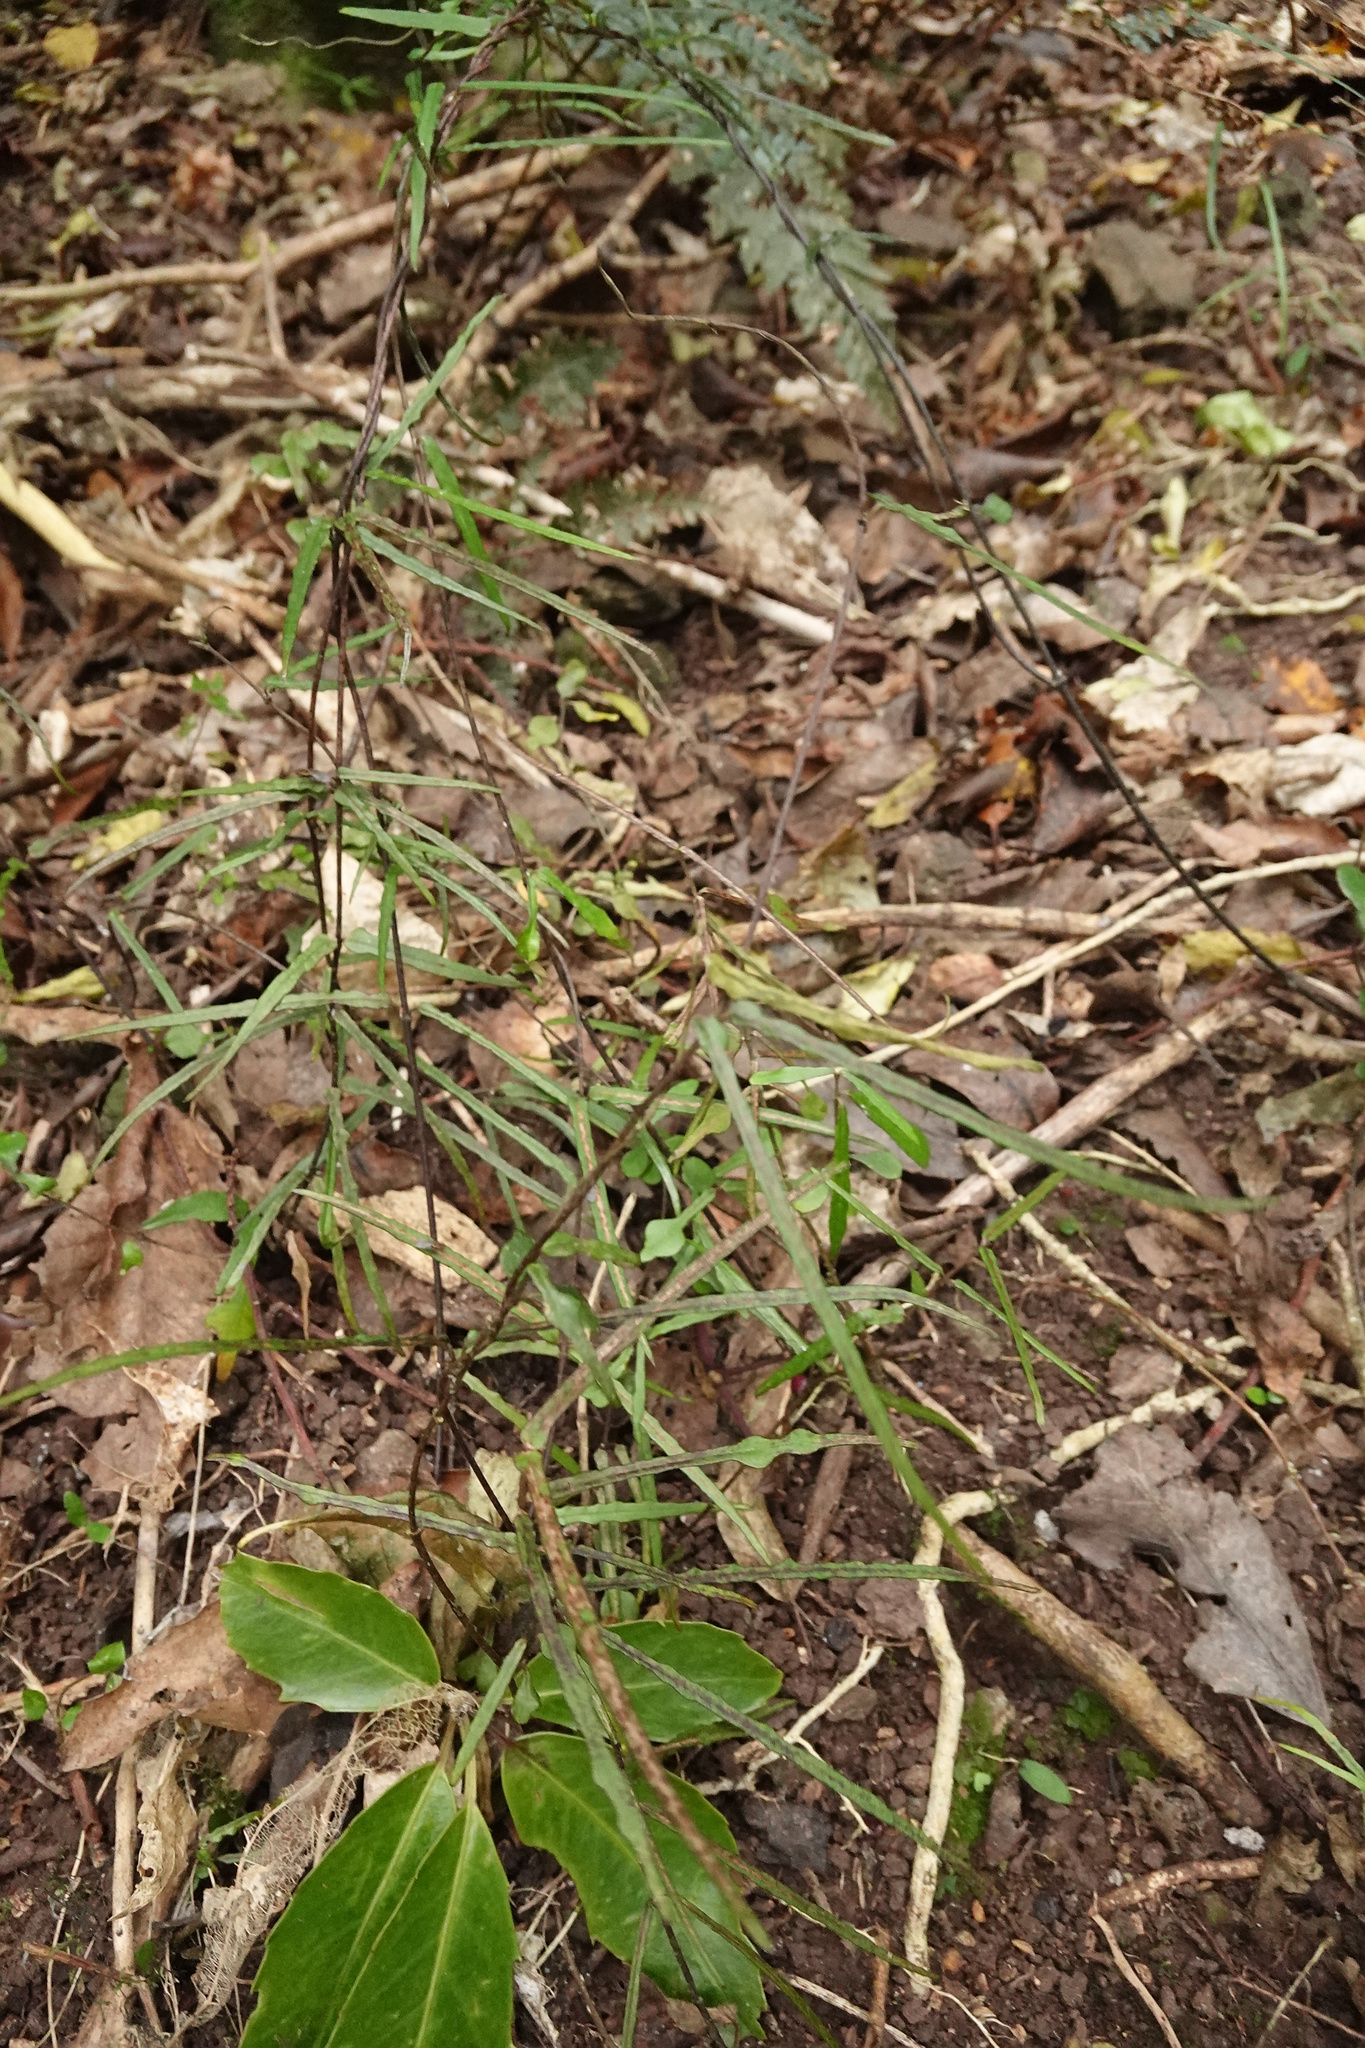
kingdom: Plantae
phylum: Tracheophyta
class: Magnoliopsida
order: Gentianales
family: Apocynaceae
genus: Parsonsia
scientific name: Parsonsia heterophylla
